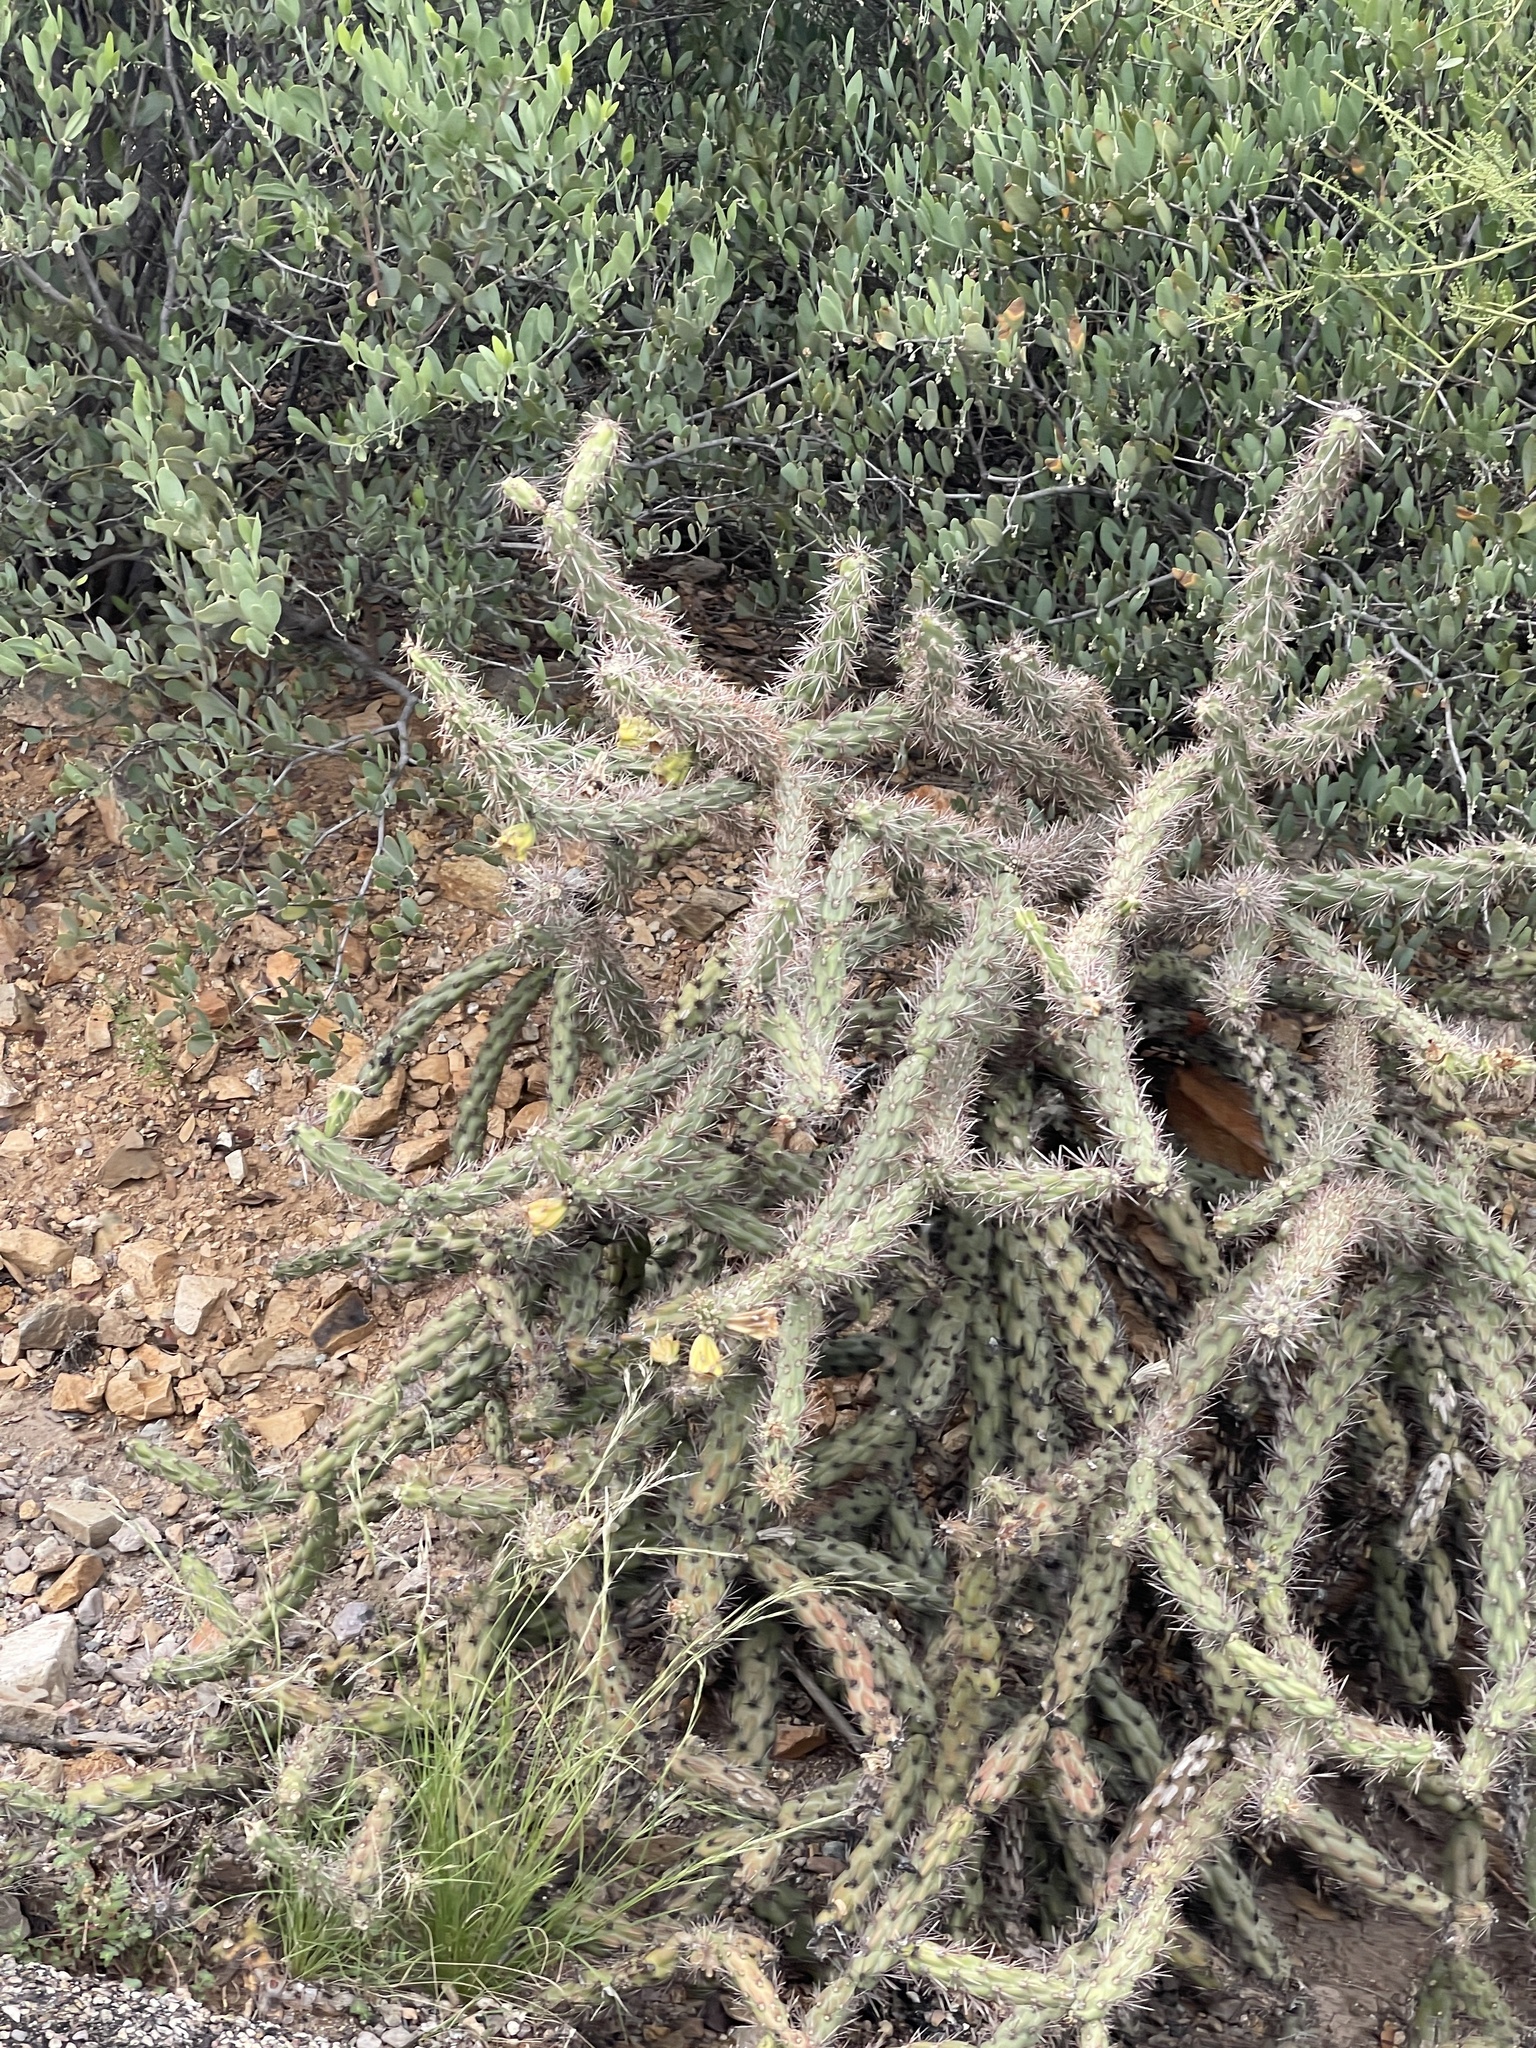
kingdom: Plantae
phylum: Tracheophyta
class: Magnoliopsida
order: Caryophyllales
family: Cactaceae
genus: Cylindropuntia
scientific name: Cylindropuntia thurberi
